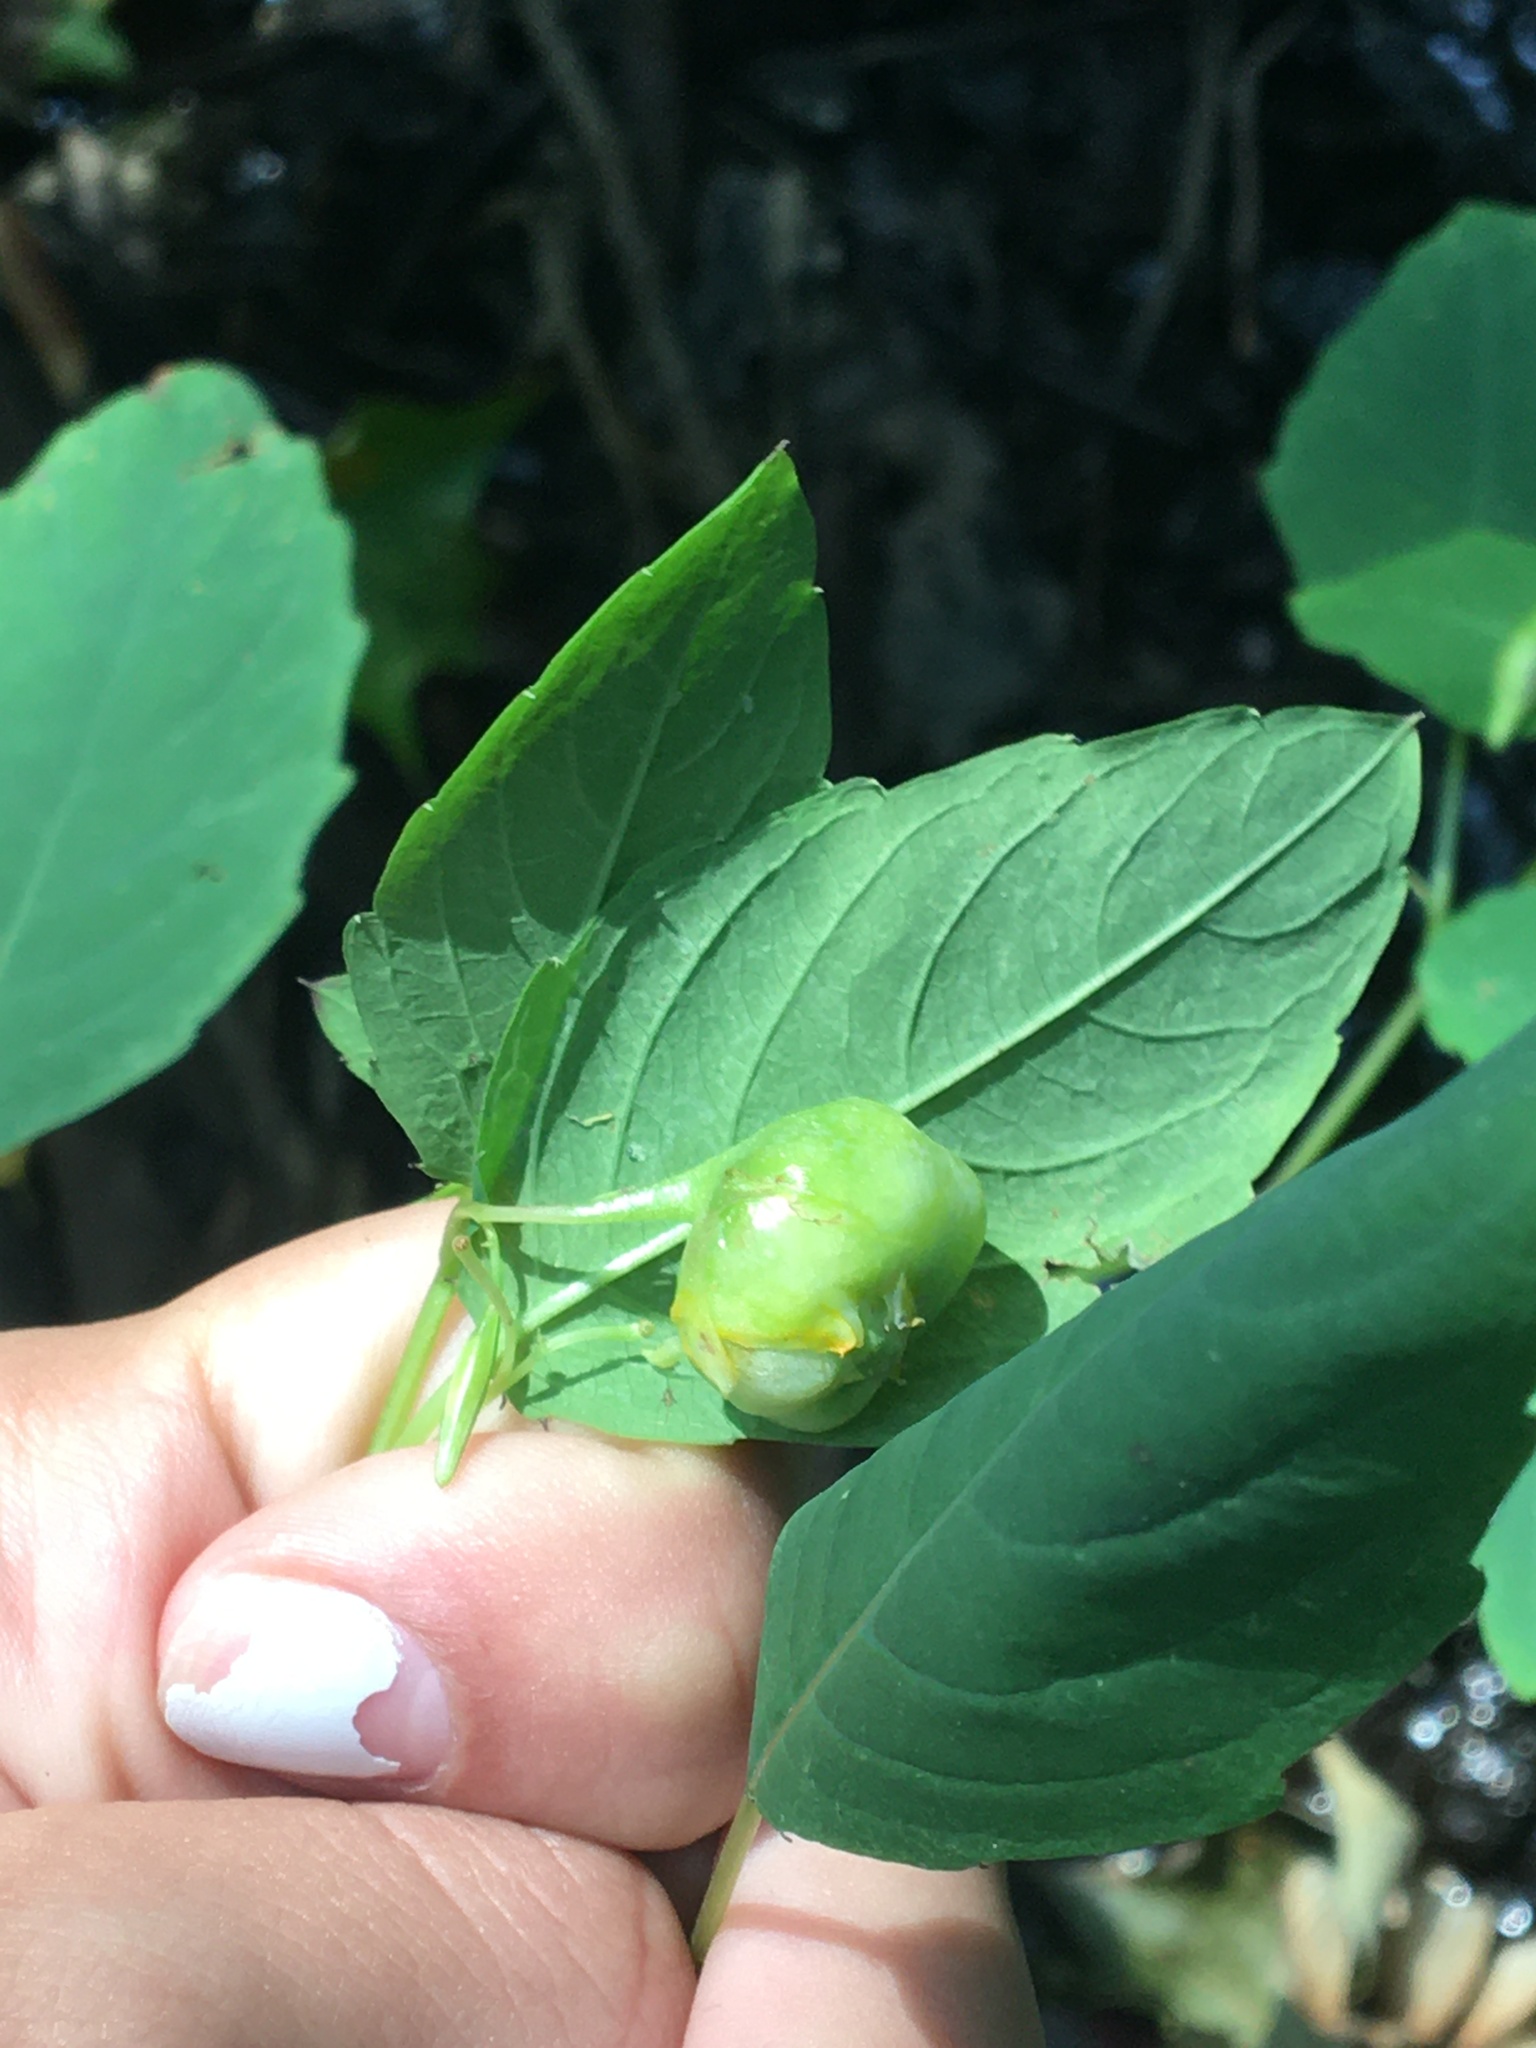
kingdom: Animalia
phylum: Arthropoda
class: Insecta
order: Diptera
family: Cecidomyiidae
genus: Schizomyia
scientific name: Schizomyia impatientis
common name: Jewelweed gall midge
